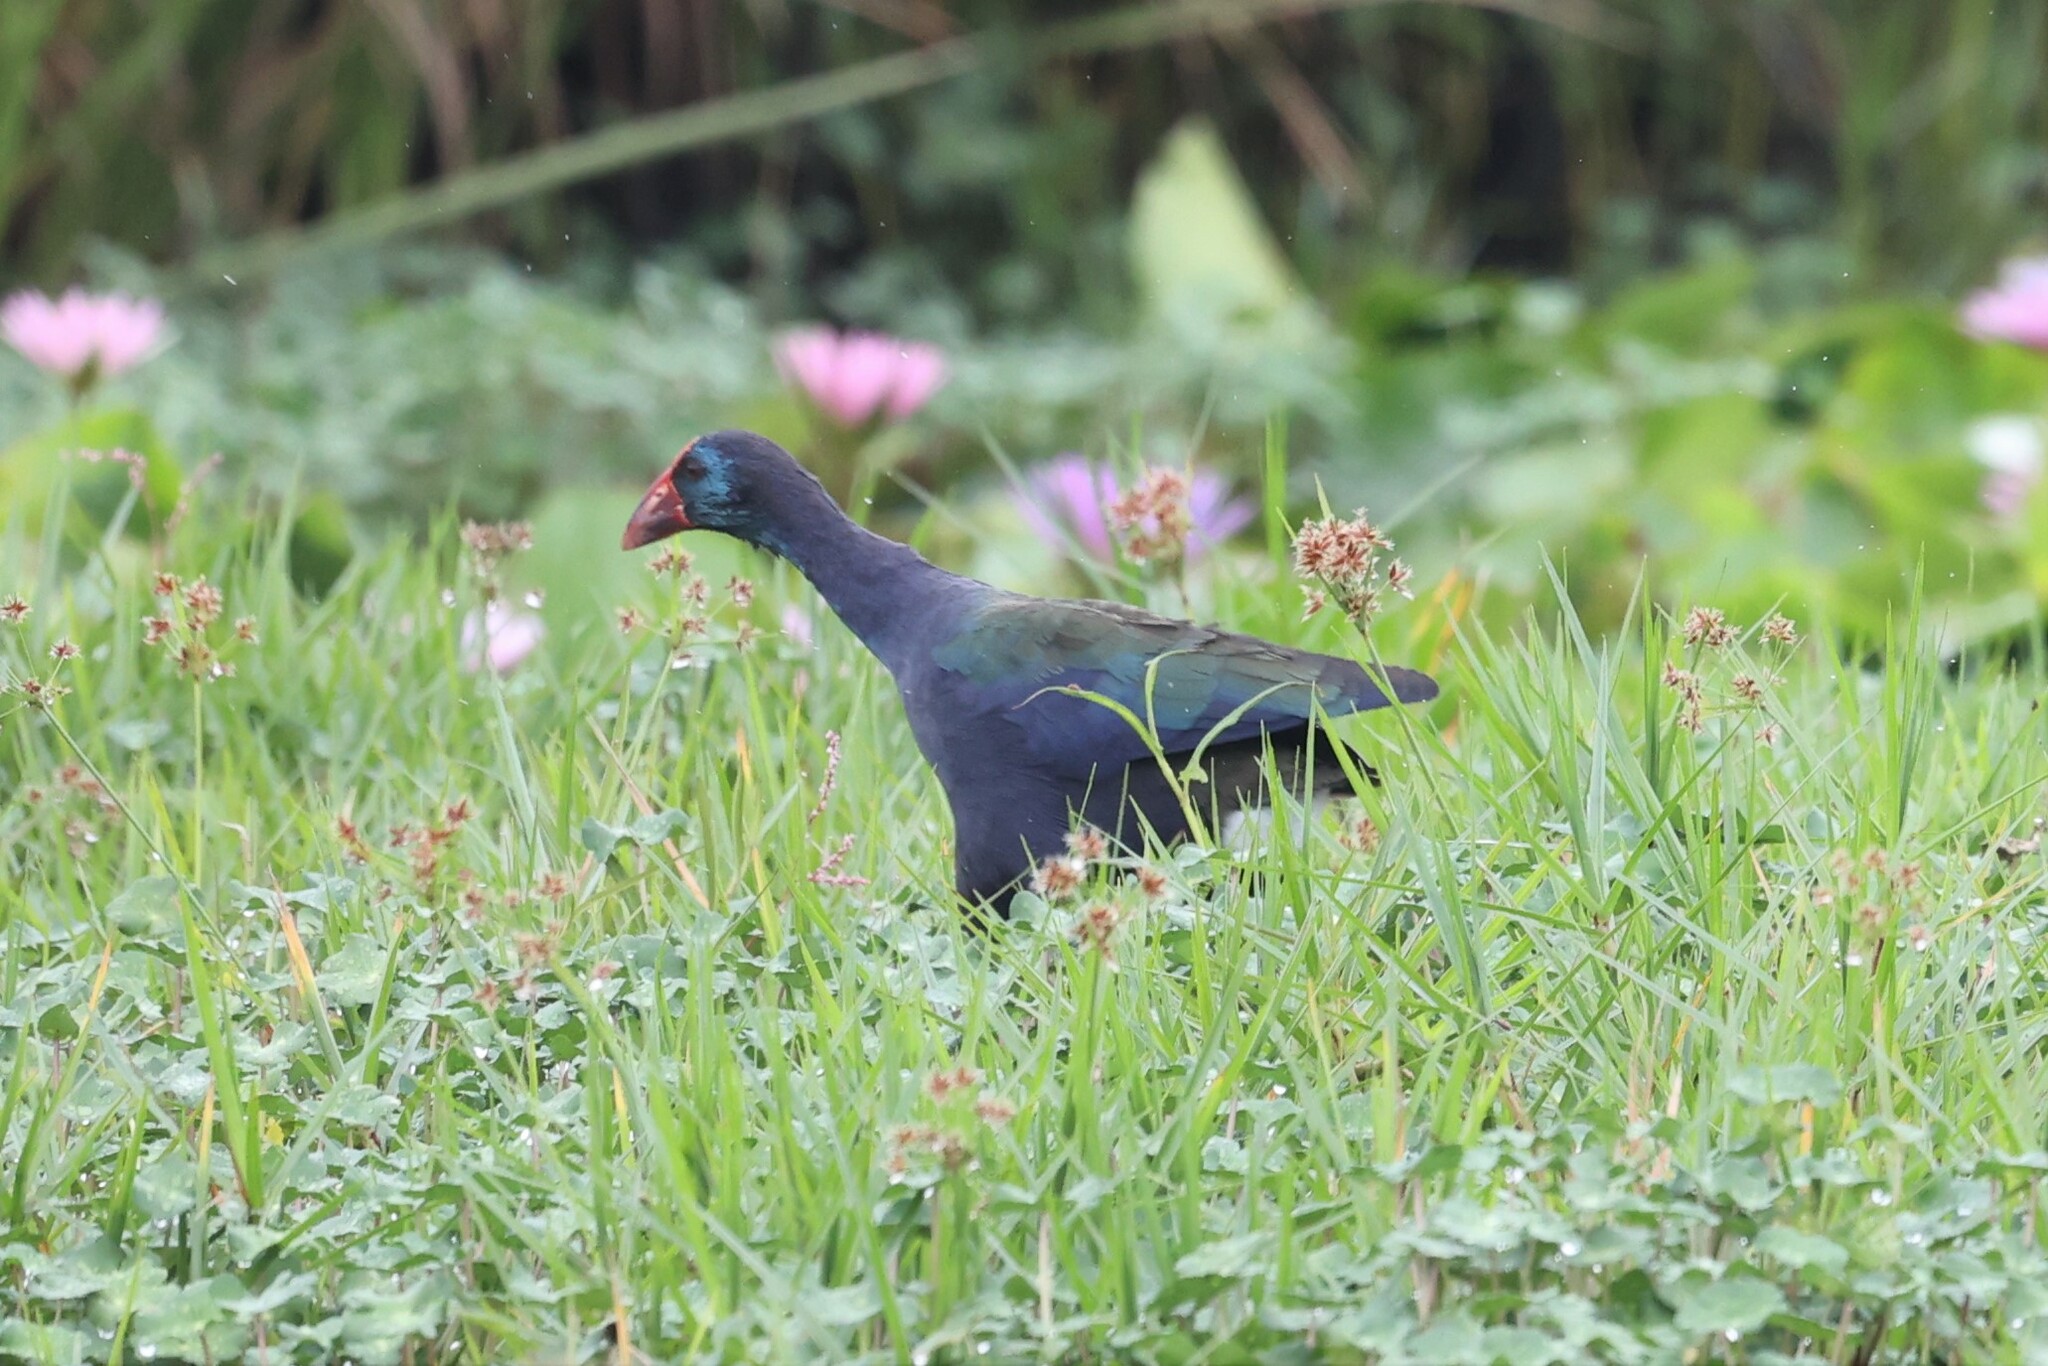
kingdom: Animalia
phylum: Chordata
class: Aves
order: Gruiformes
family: Rallidae
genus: Porphyrio
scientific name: Porphyrio porphyrio
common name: Purple swamphen
